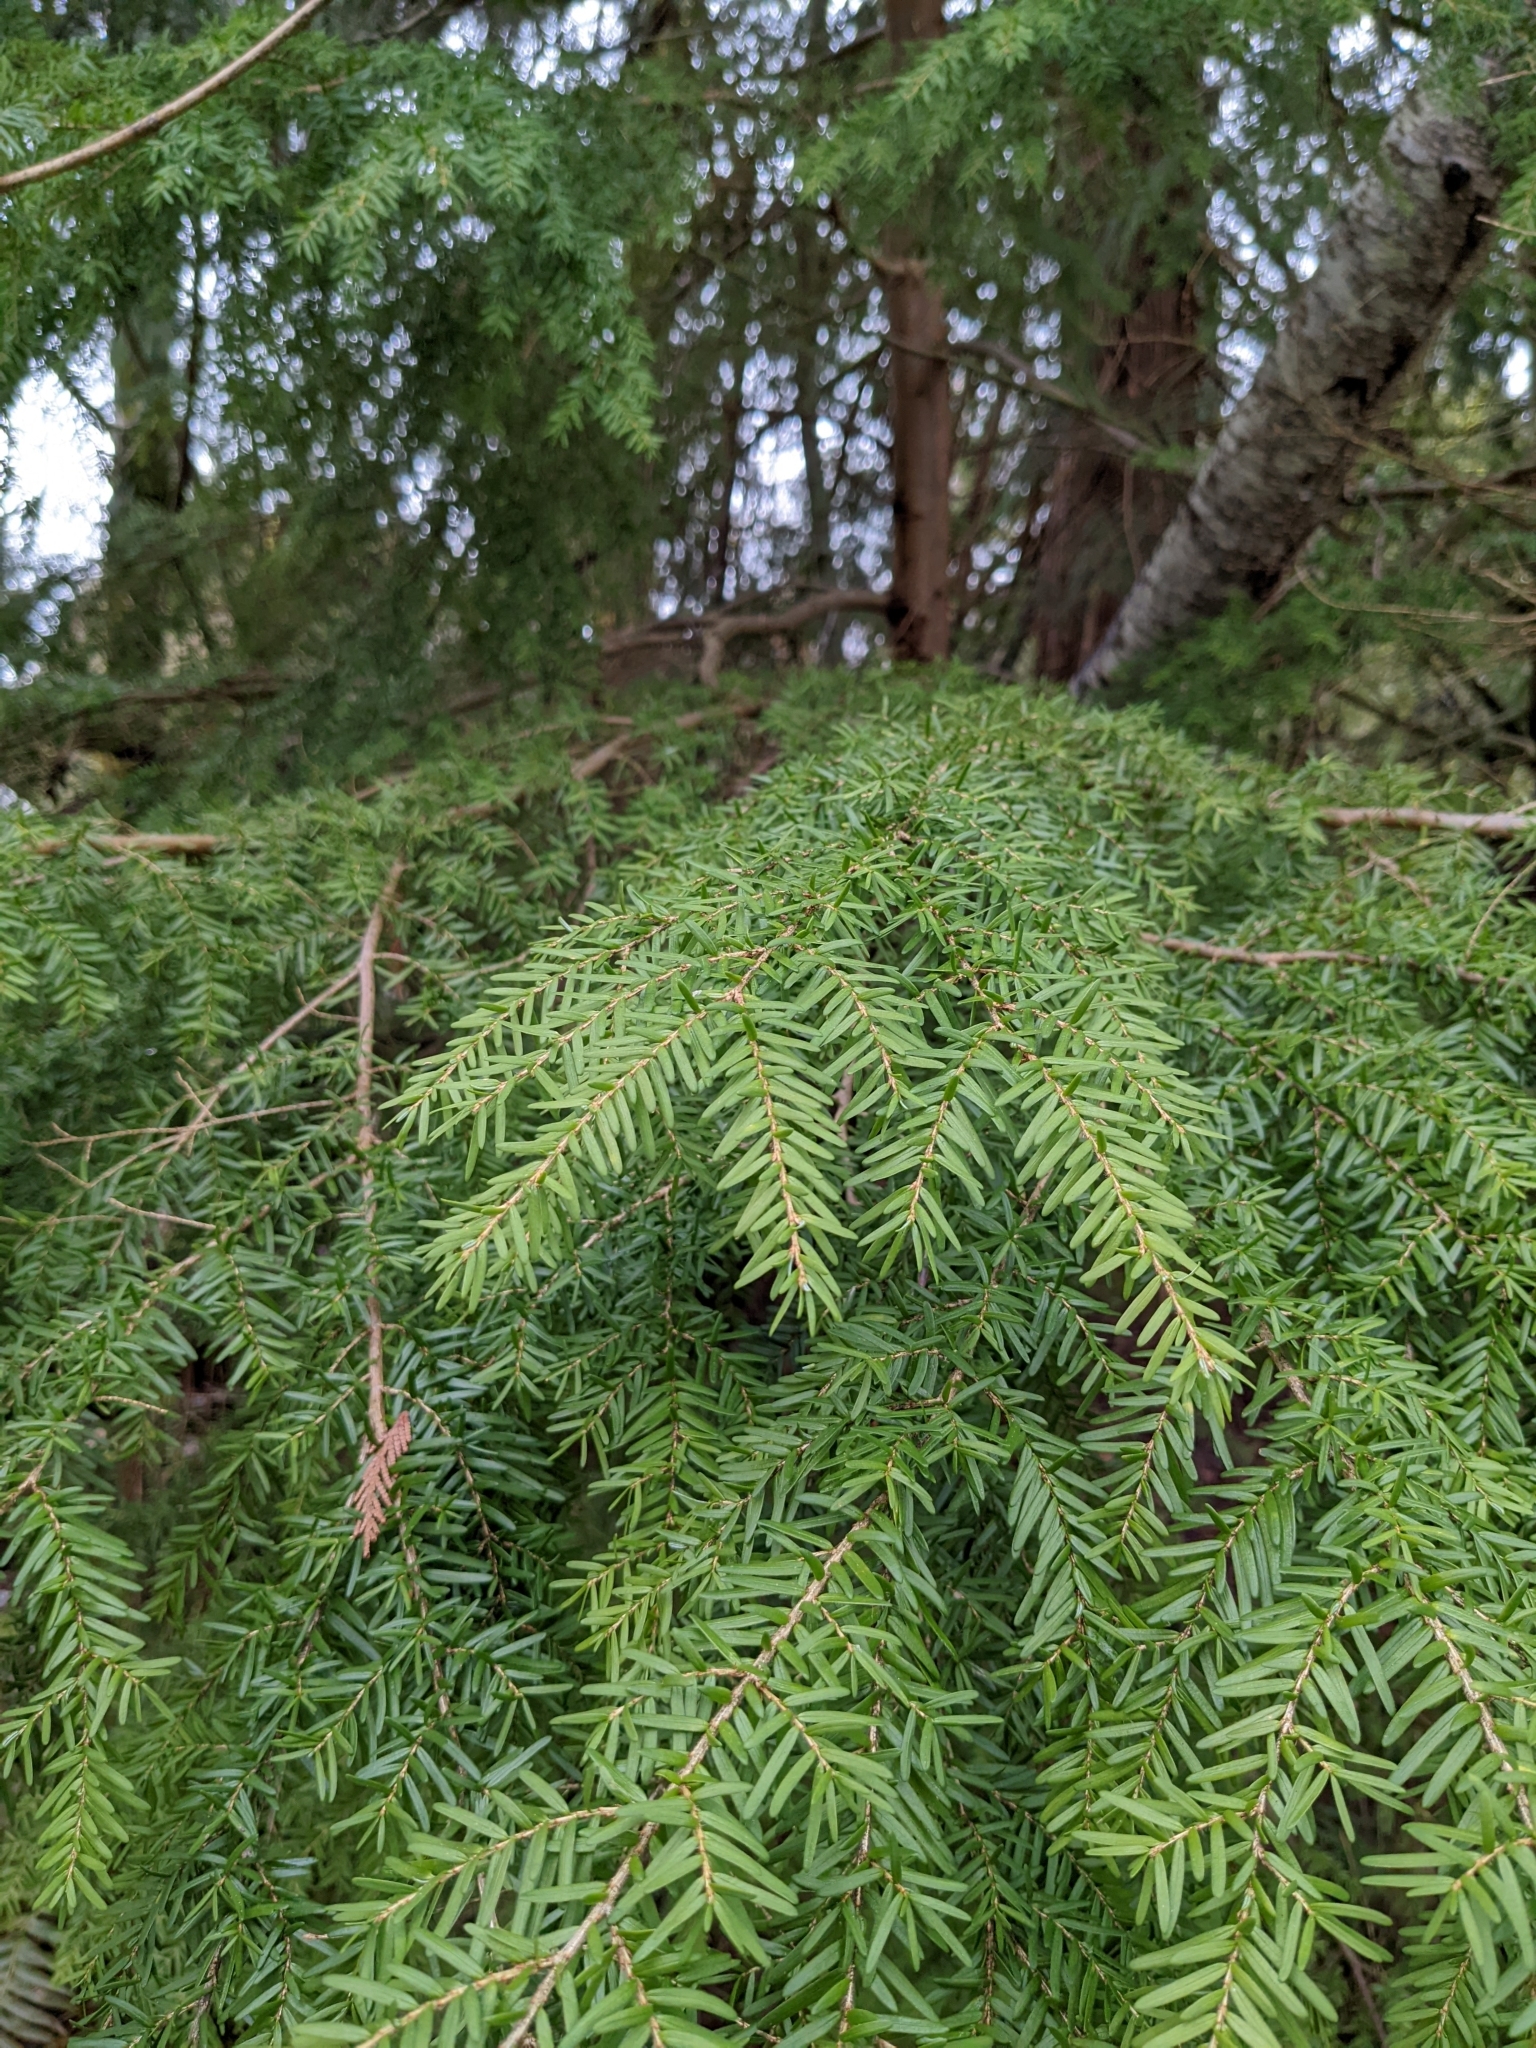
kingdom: Plantae
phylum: Tracheophyta
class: Pinopsida
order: Pinales
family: Pinaceae
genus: Tsuga
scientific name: Tsuga heterophylla
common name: Western hemlock
